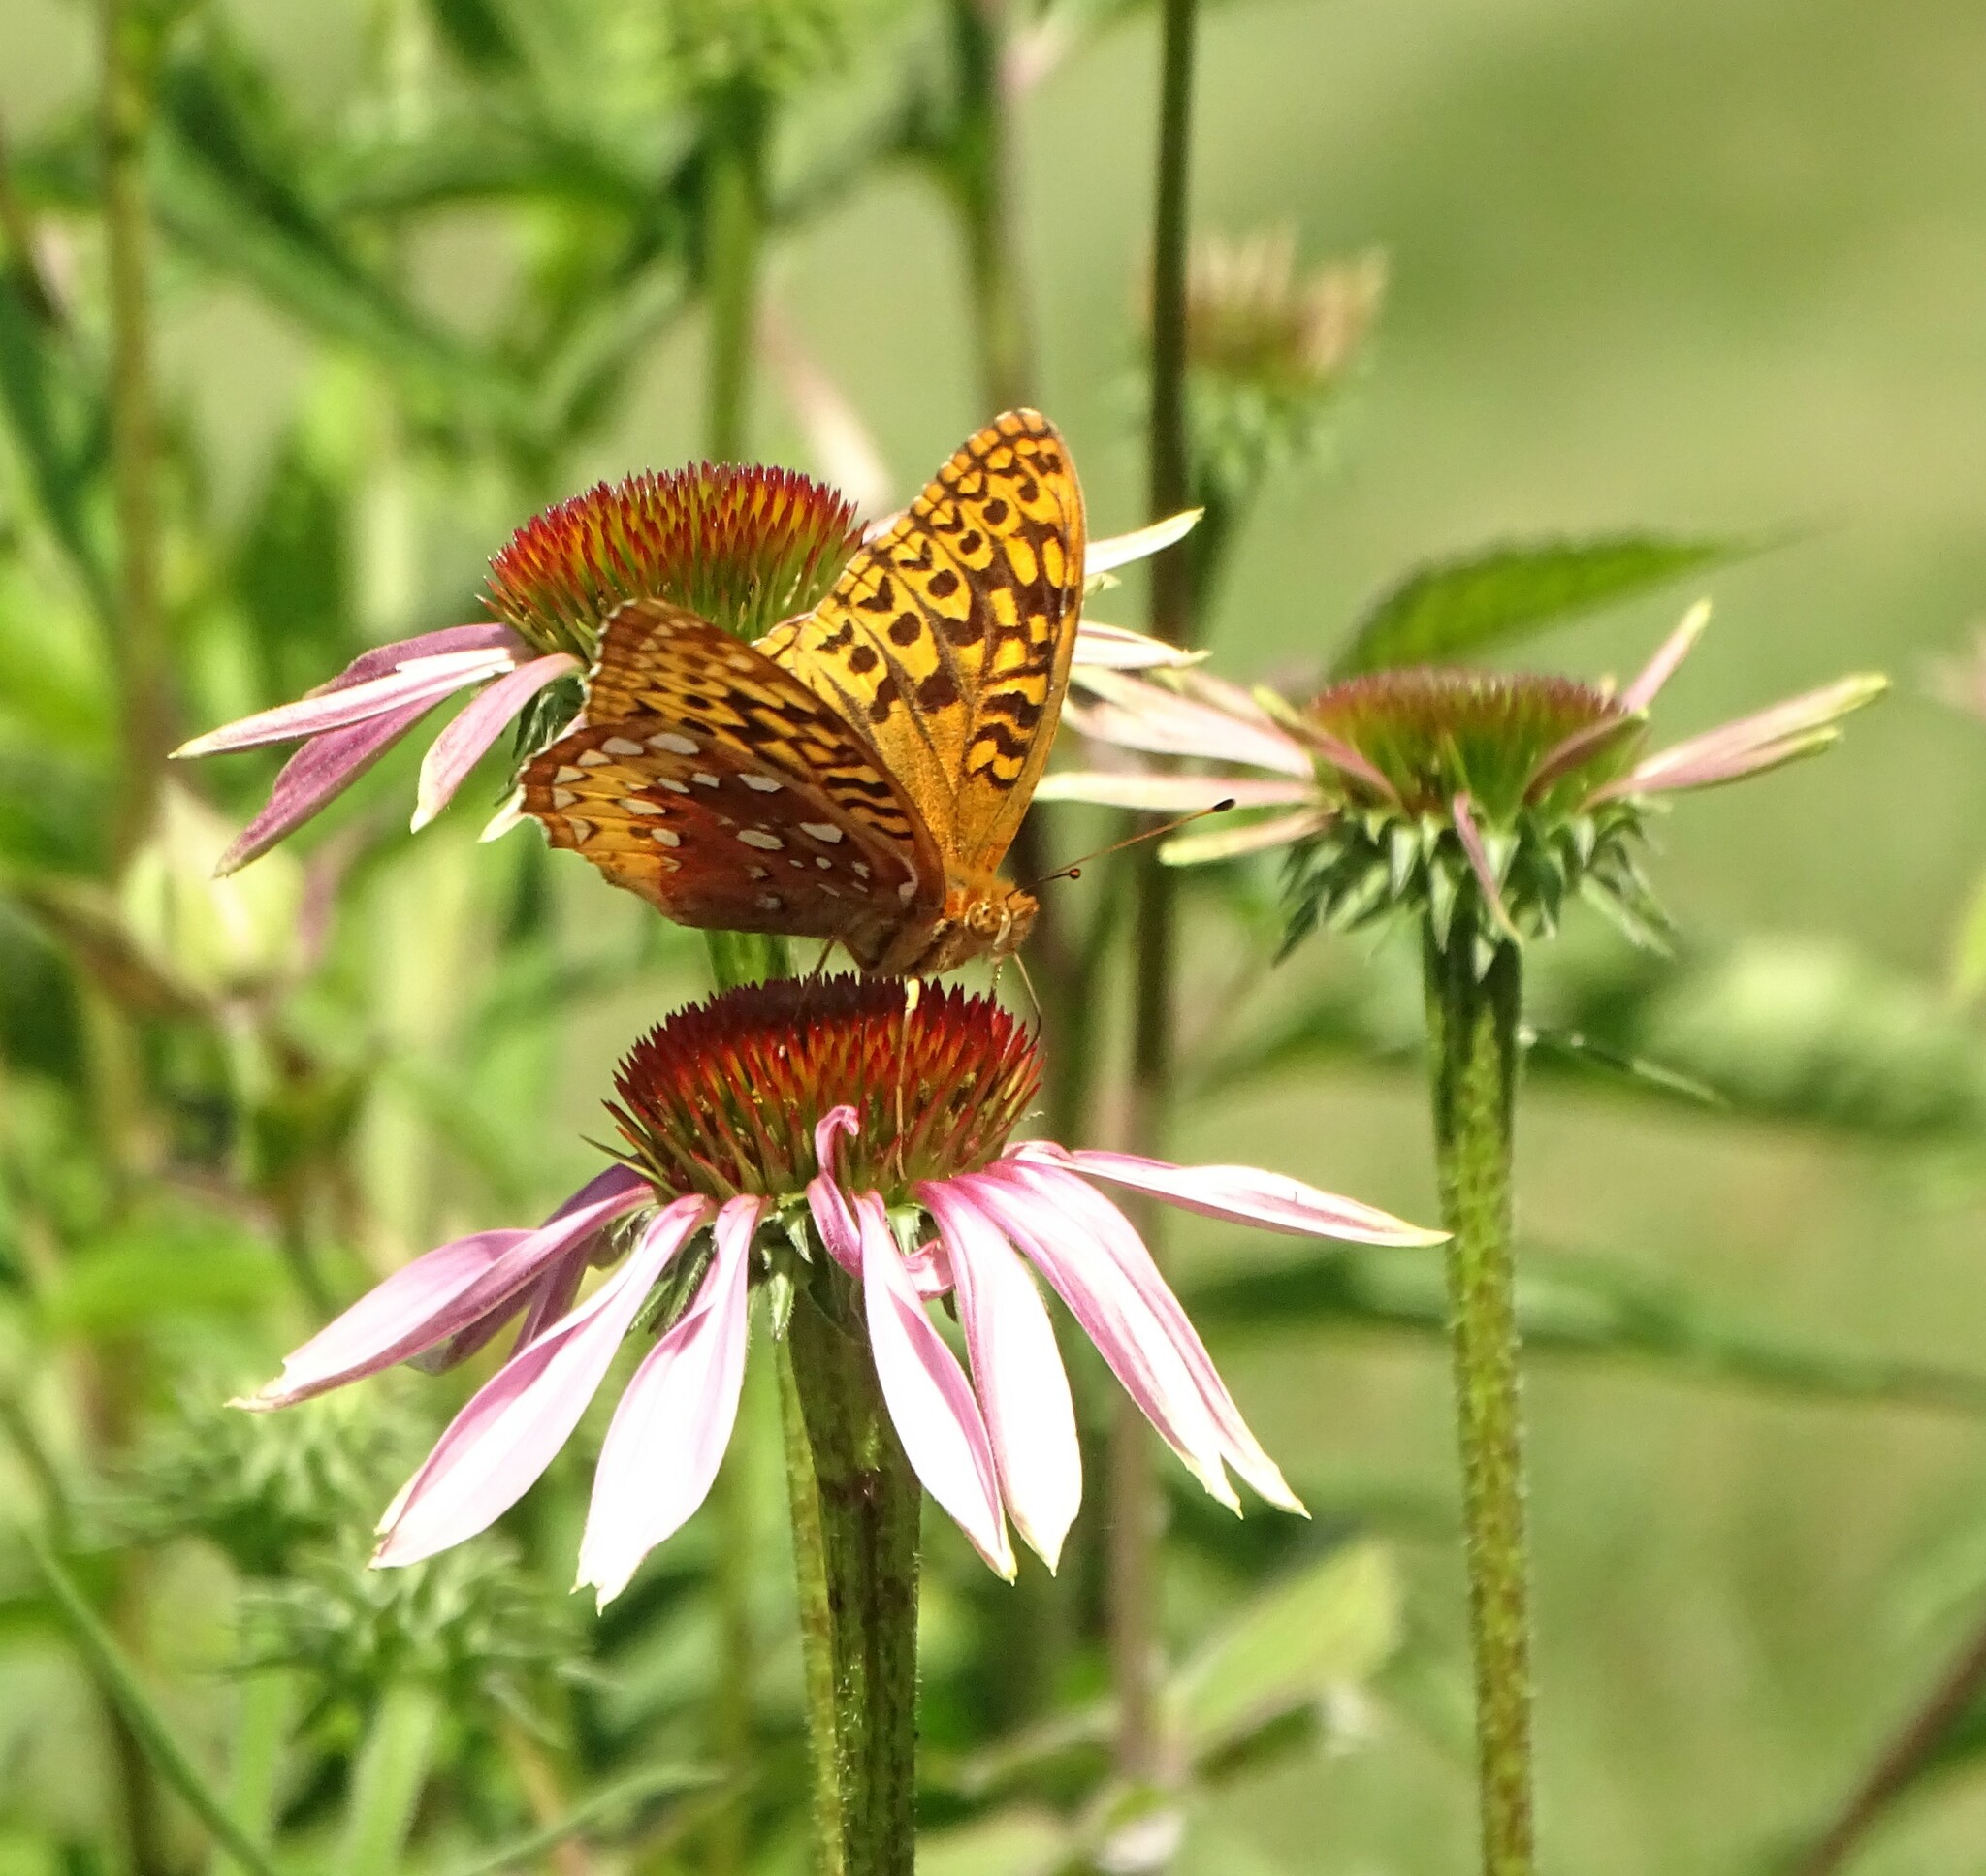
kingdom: Animalia
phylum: Arthropoda
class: Insecta
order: Lepidoptera
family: Nymphalidae
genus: Speyeria
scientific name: Speyeria cybele
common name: Great spangled fritillary
